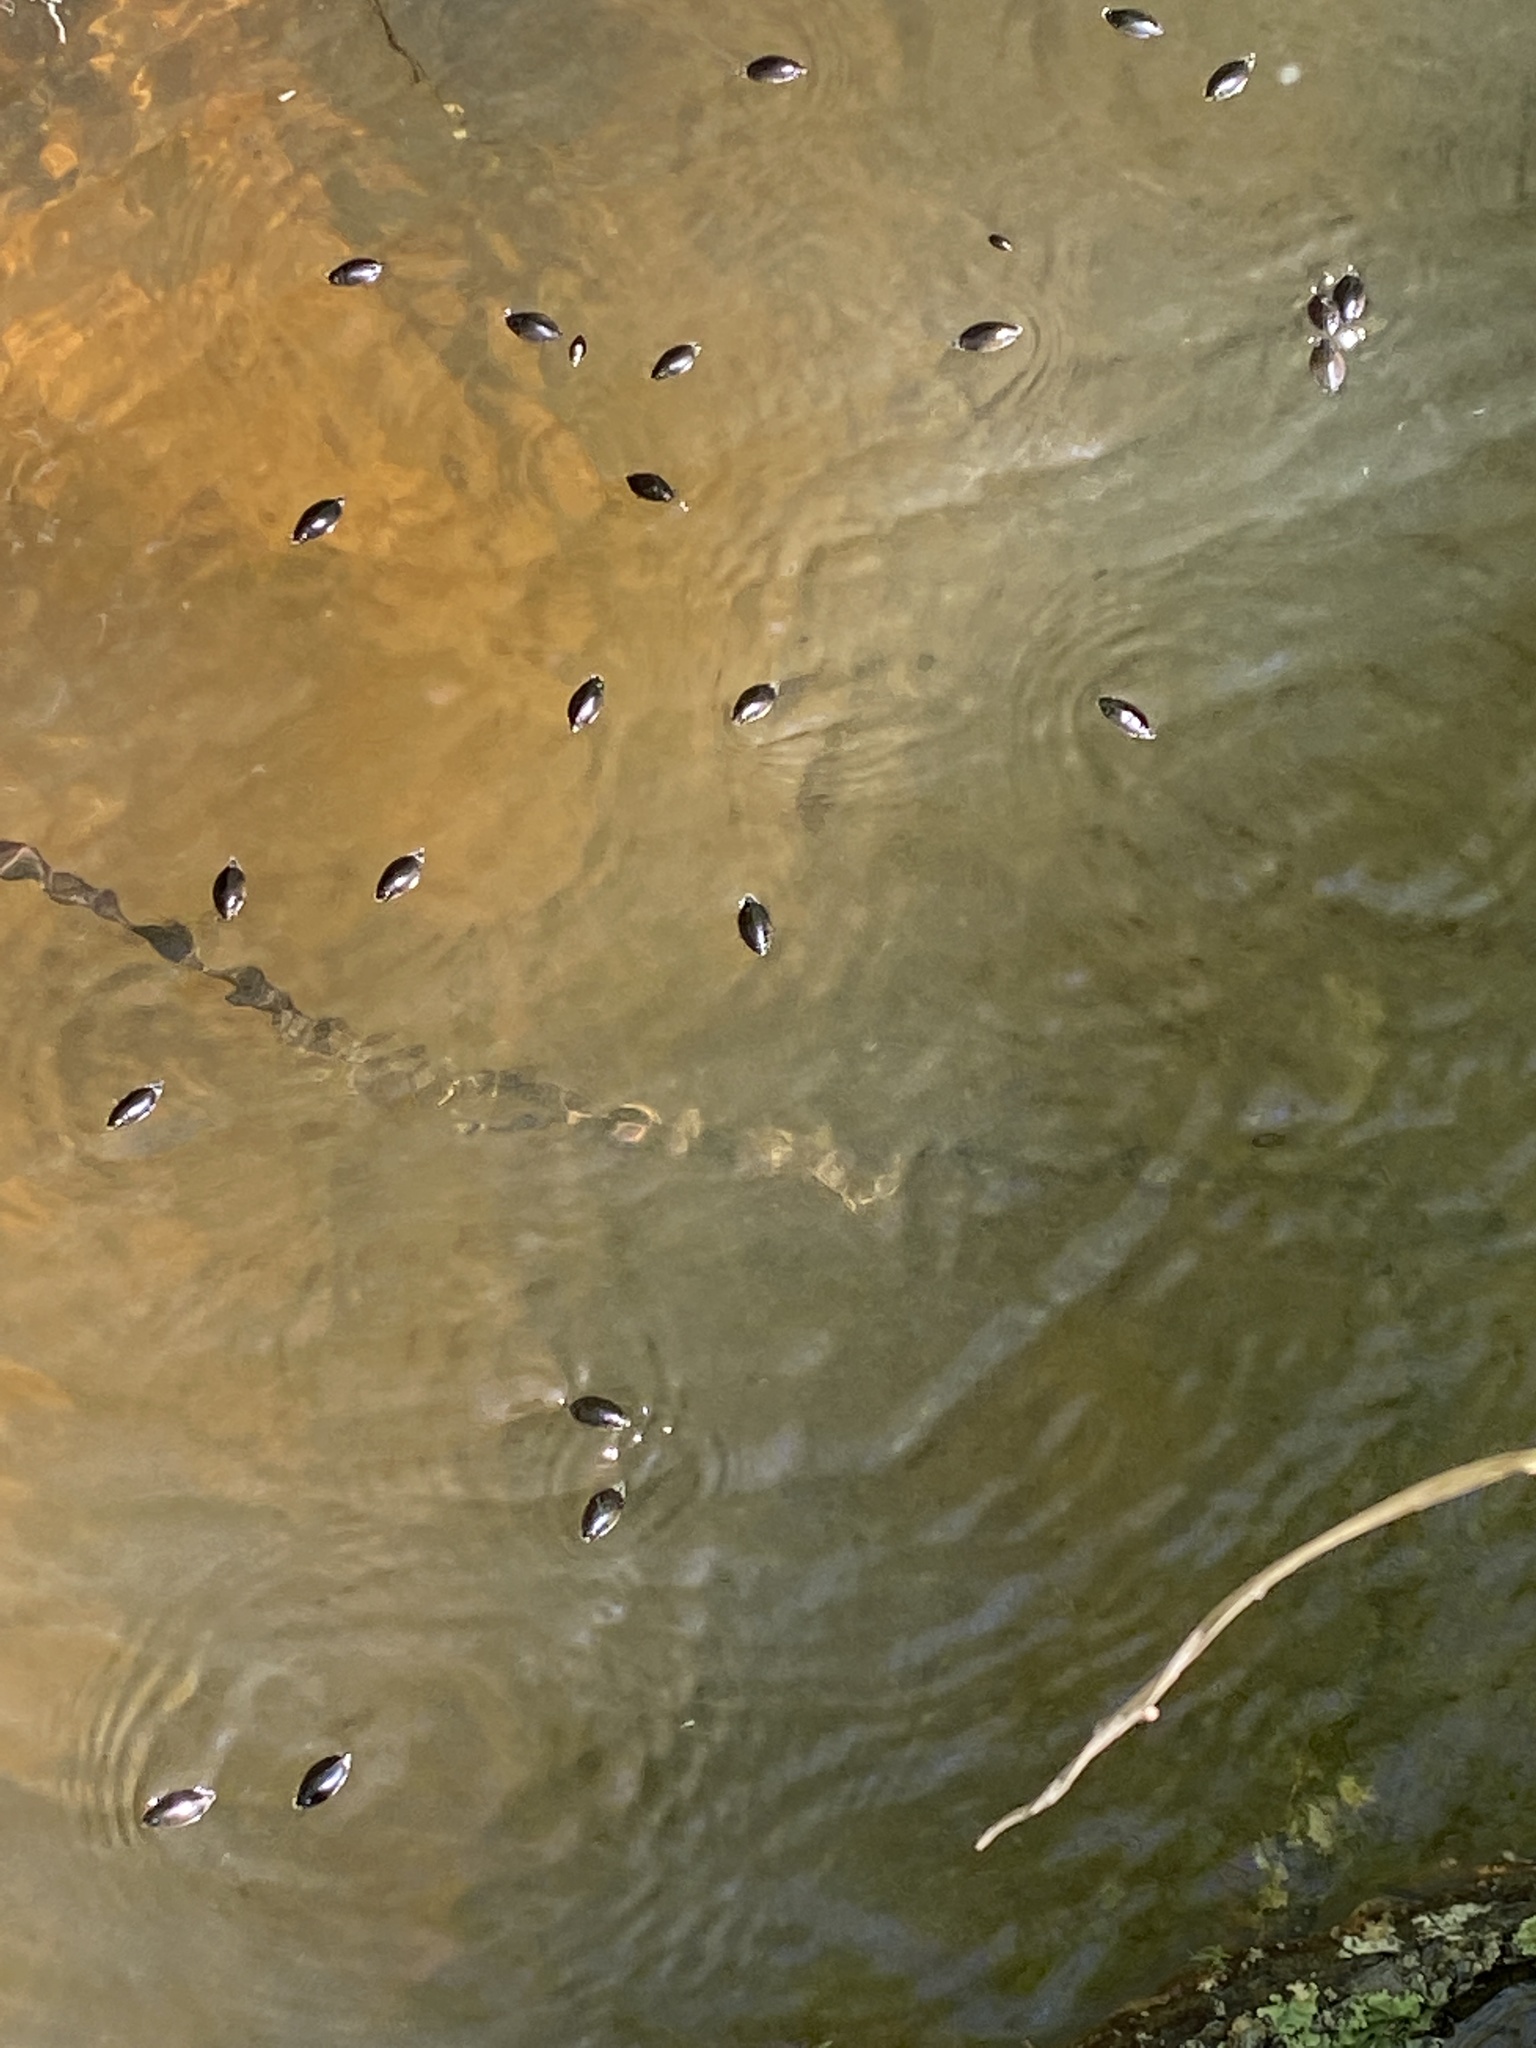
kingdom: Animalia
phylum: Arthropoda
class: Insecta
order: Coleoptera
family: Gyrinidae
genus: Gyrinus
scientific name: Gyrinus
